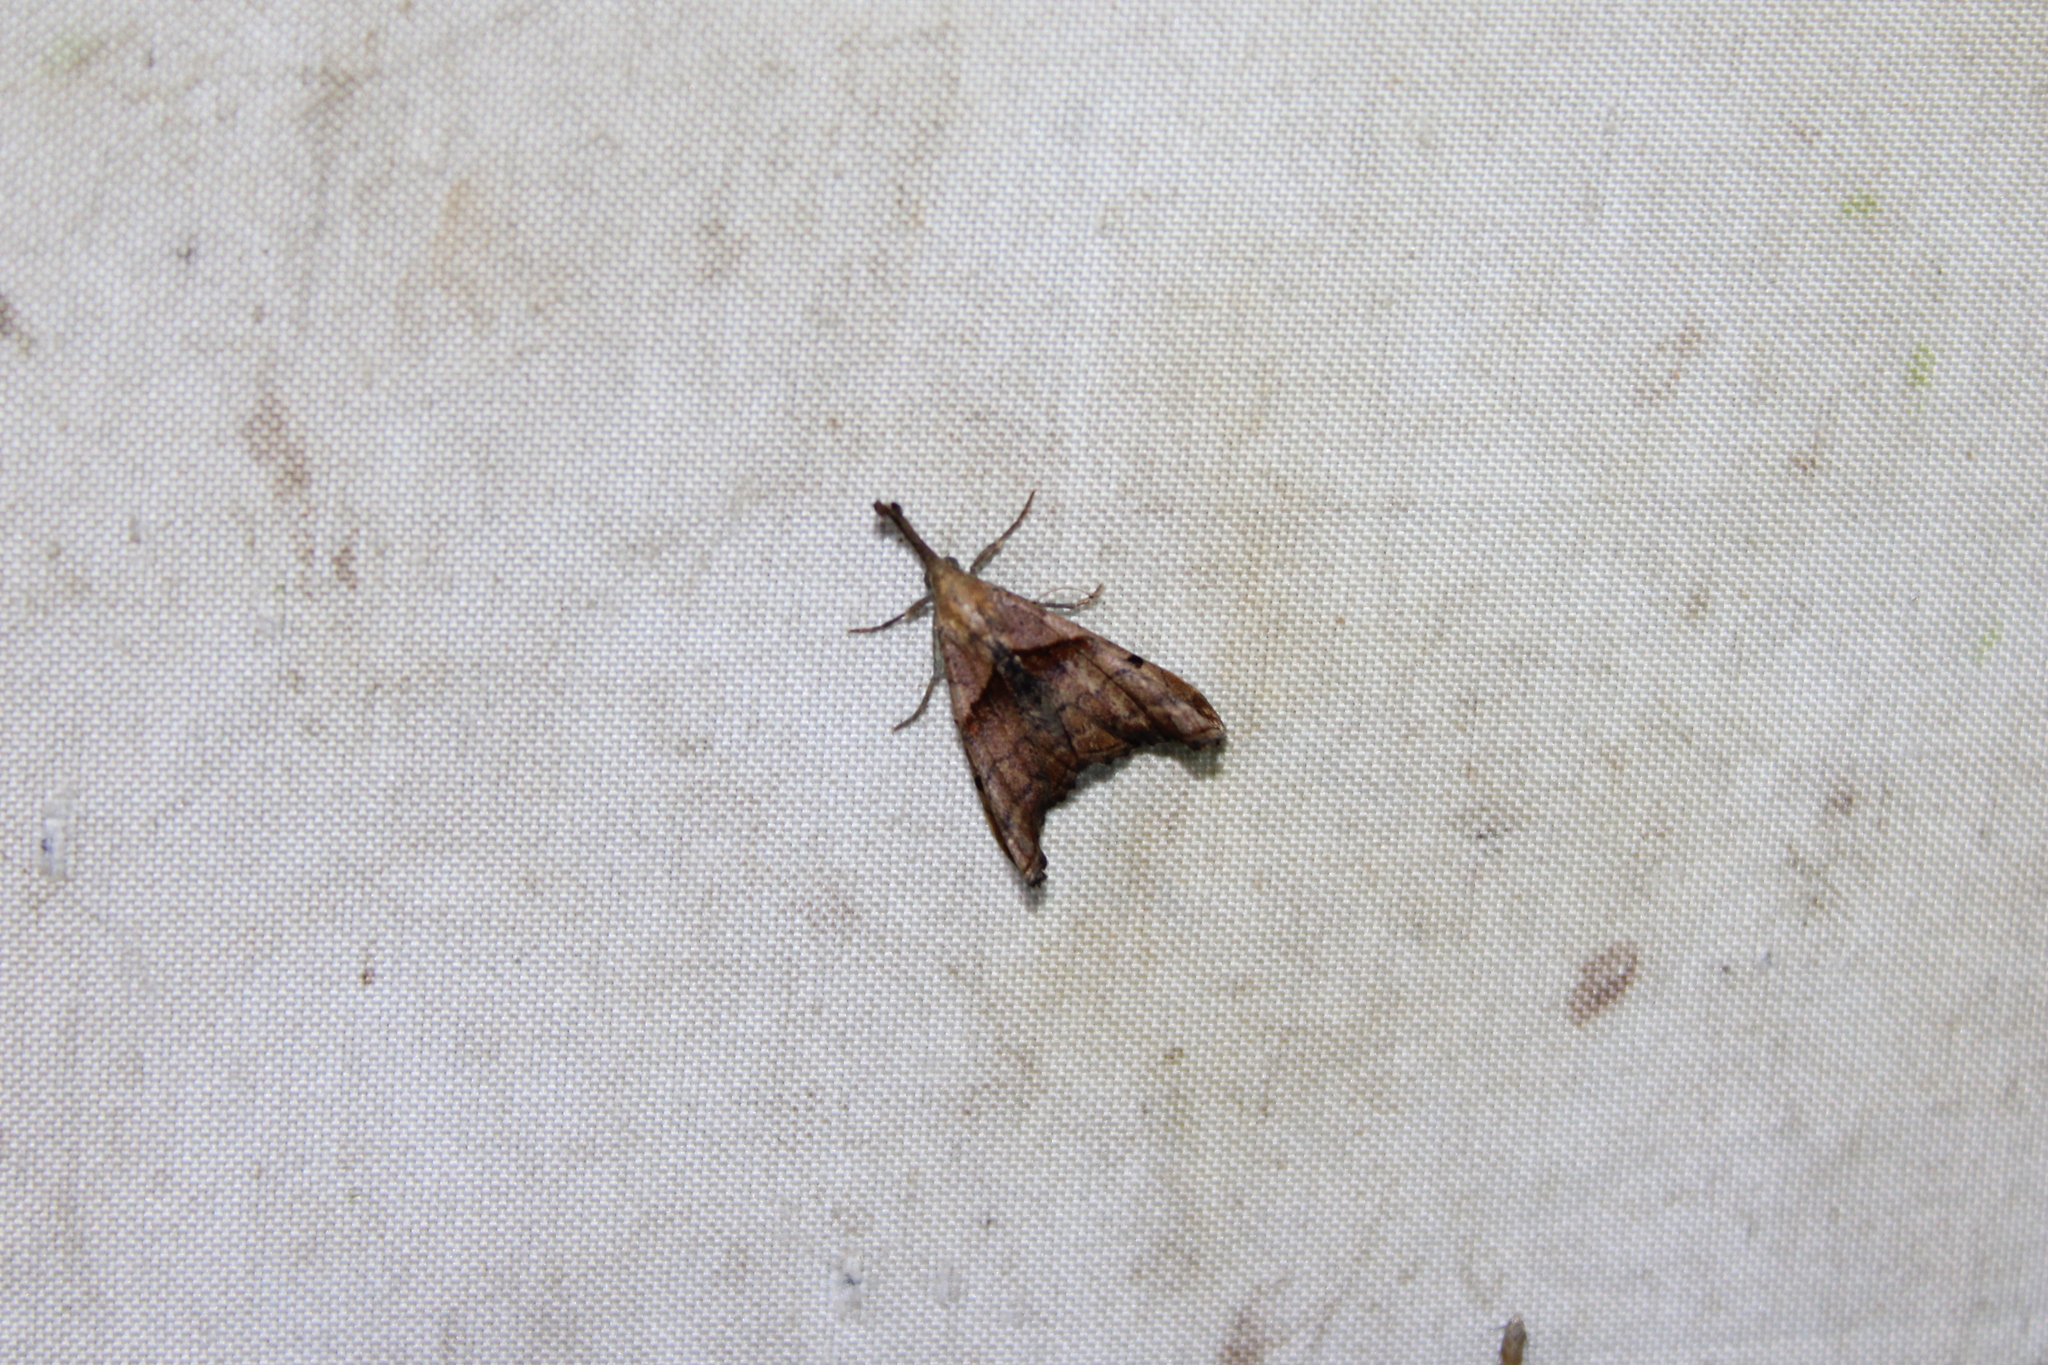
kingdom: Animalia
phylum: Arthropoda
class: Insecta
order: Lepidoptera
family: Erebidae
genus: Palthis
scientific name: Palthis angulalis
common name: Dark-spotted palthis moth
